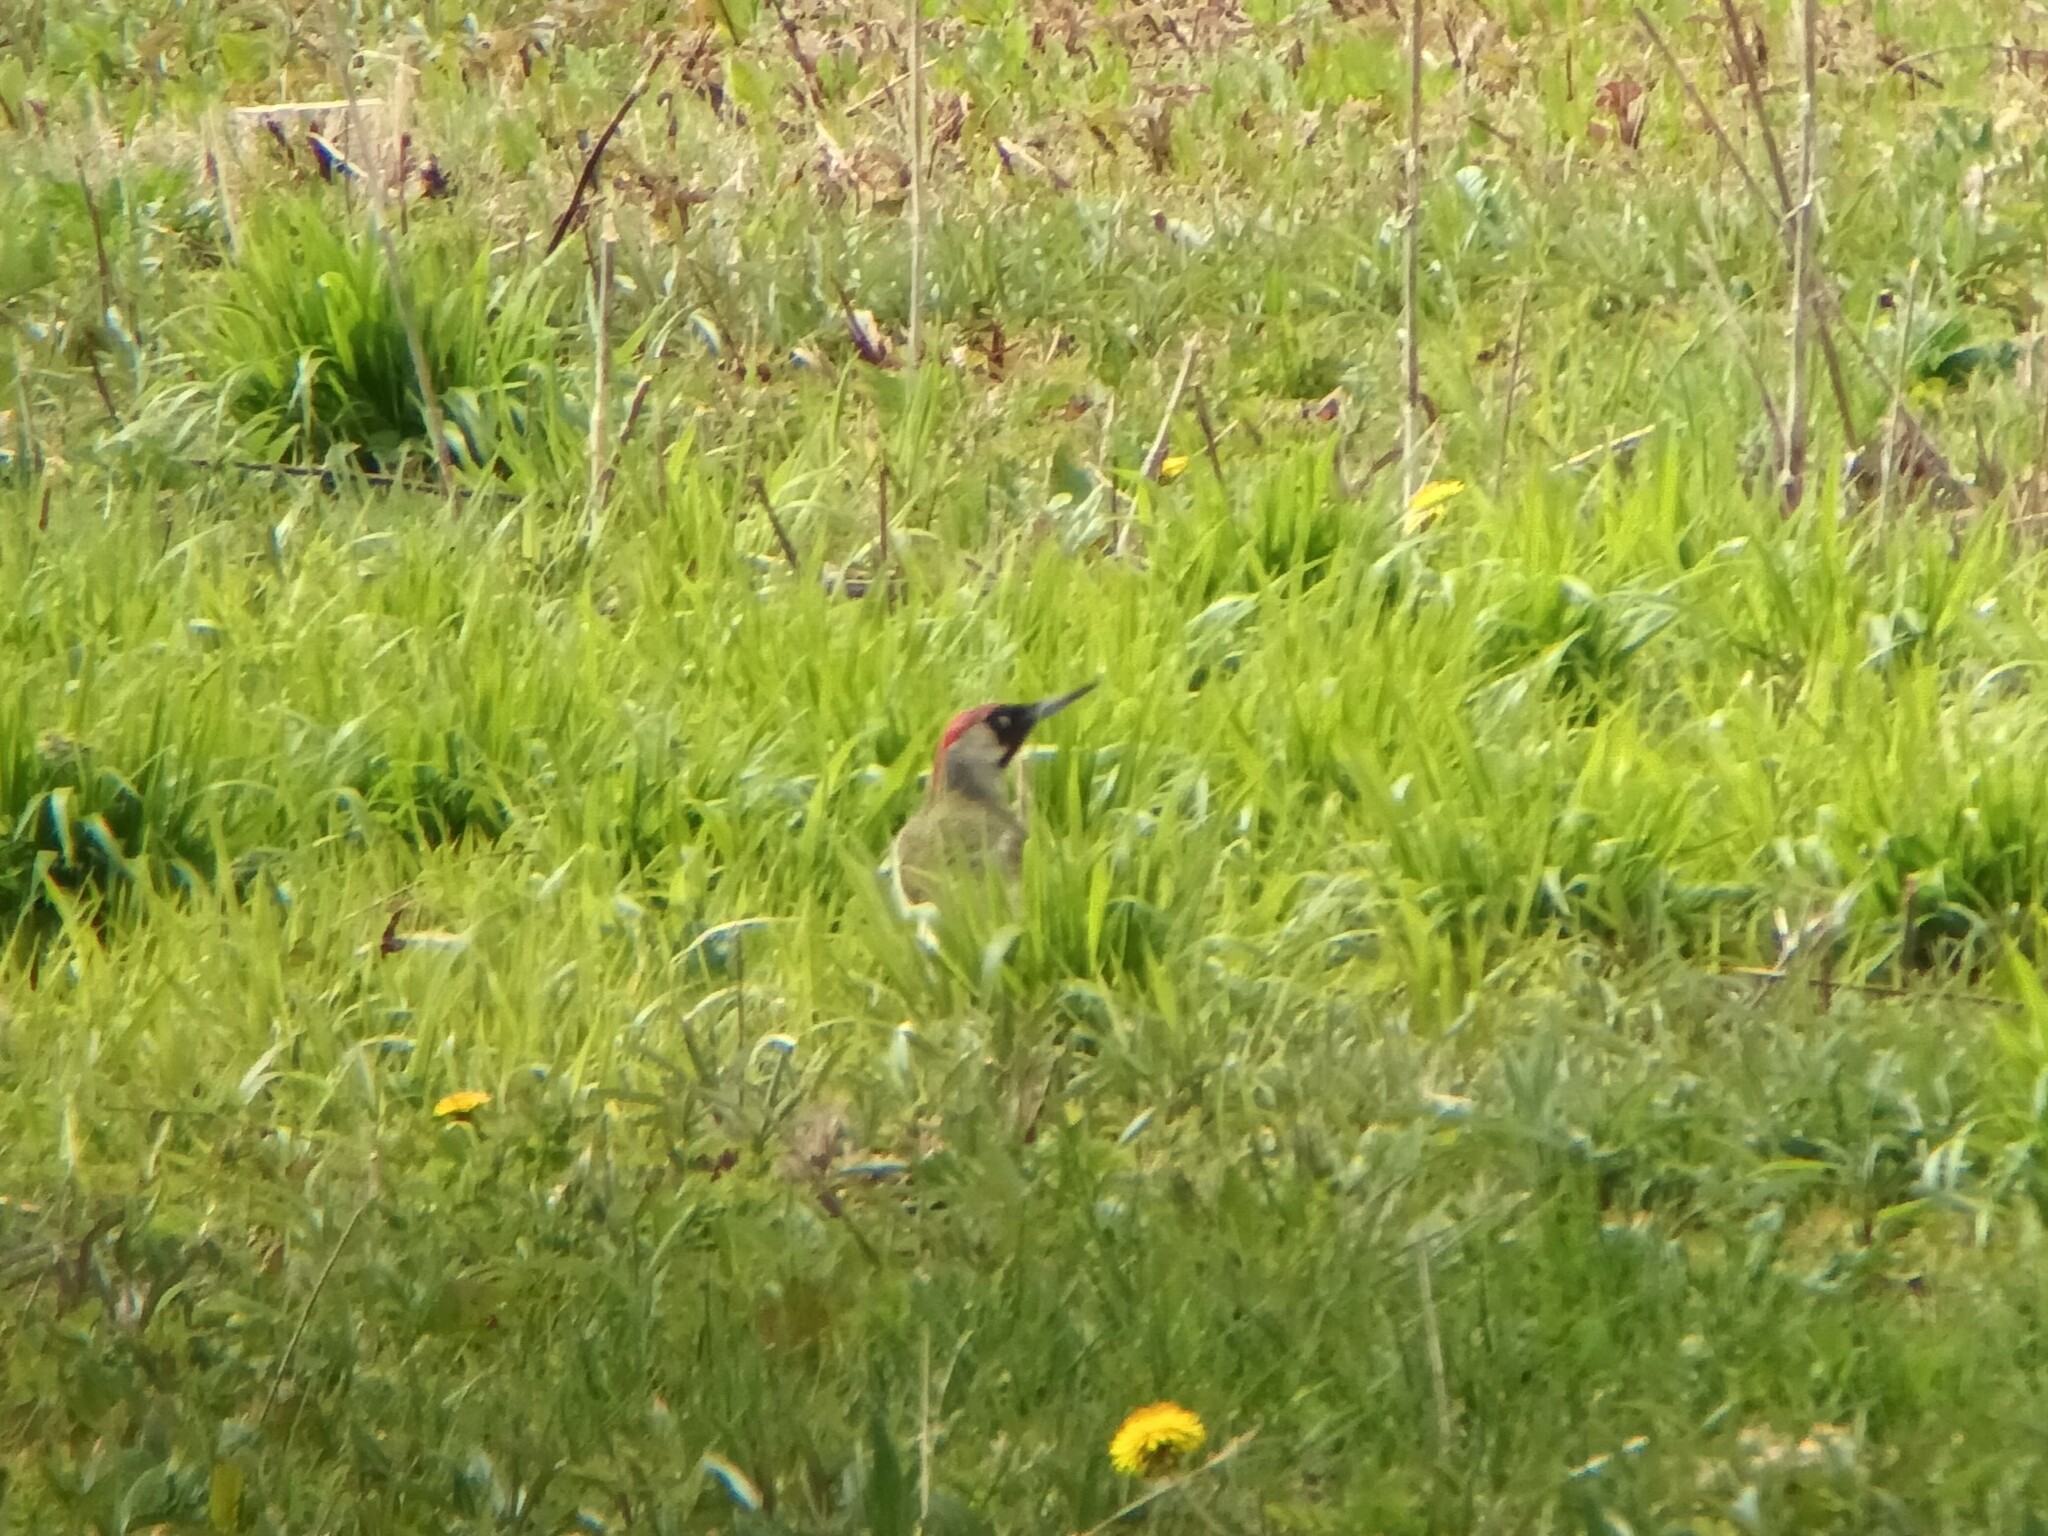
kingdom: Animalia
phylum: Chordata
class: Aves
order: Piciformes
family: Picidae
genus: Picus
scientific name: Picus viridis
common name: European green woodpecker
